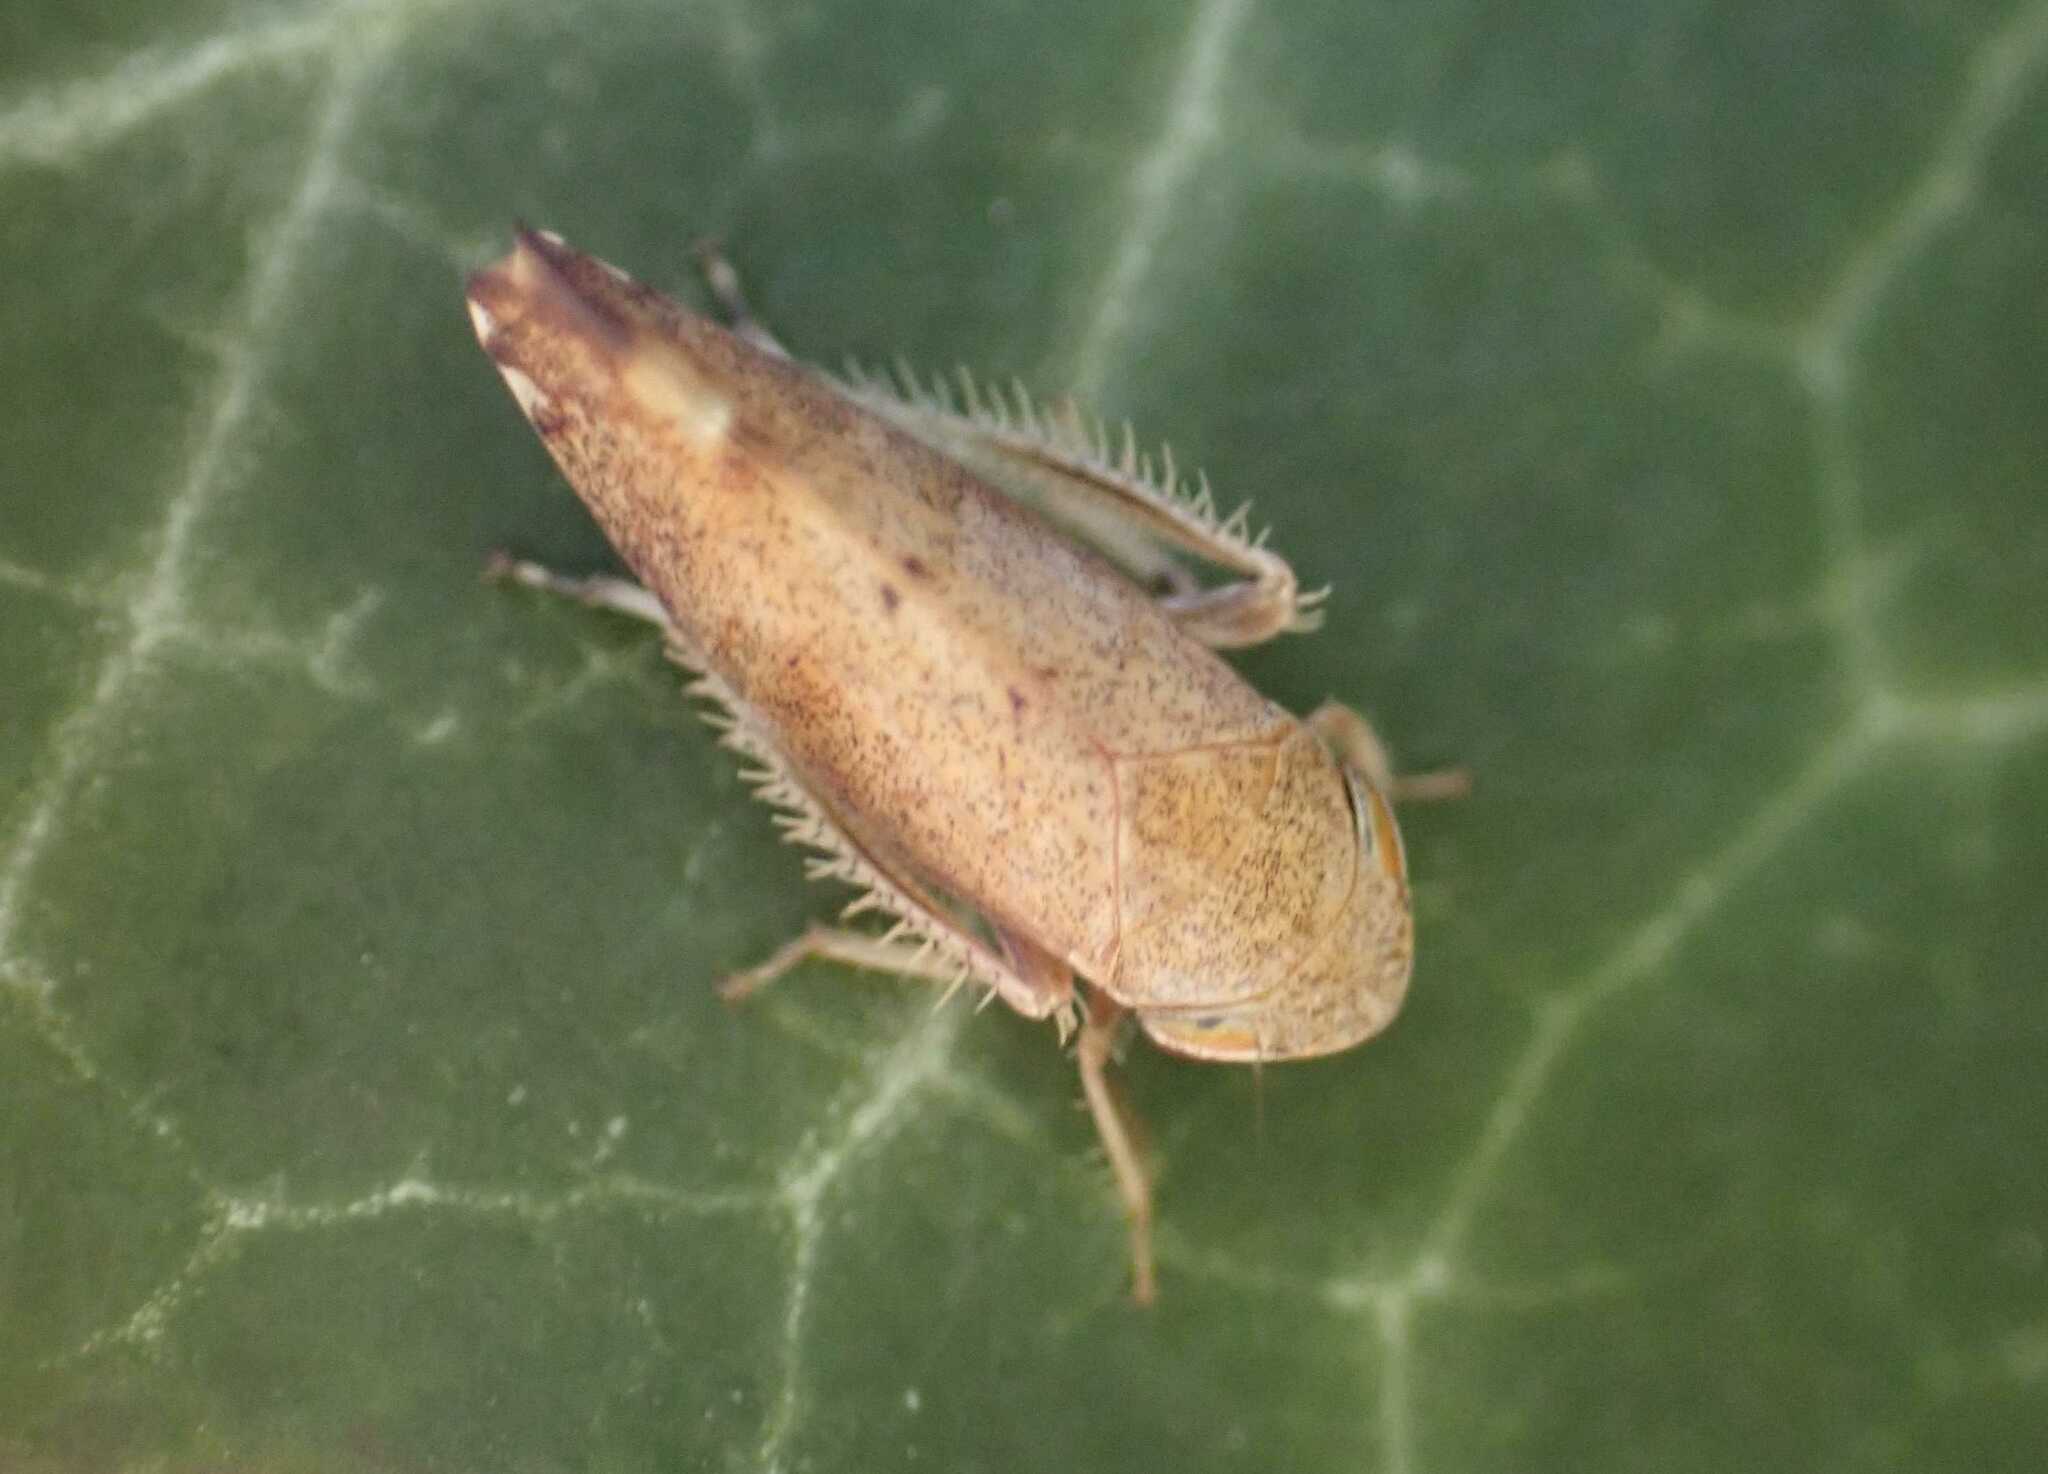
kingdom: Animalia
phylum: Arthropoda
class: Insecta
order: Hemiptera
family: Cicadellidae
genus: Fieberiella
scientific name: Fieberiella
